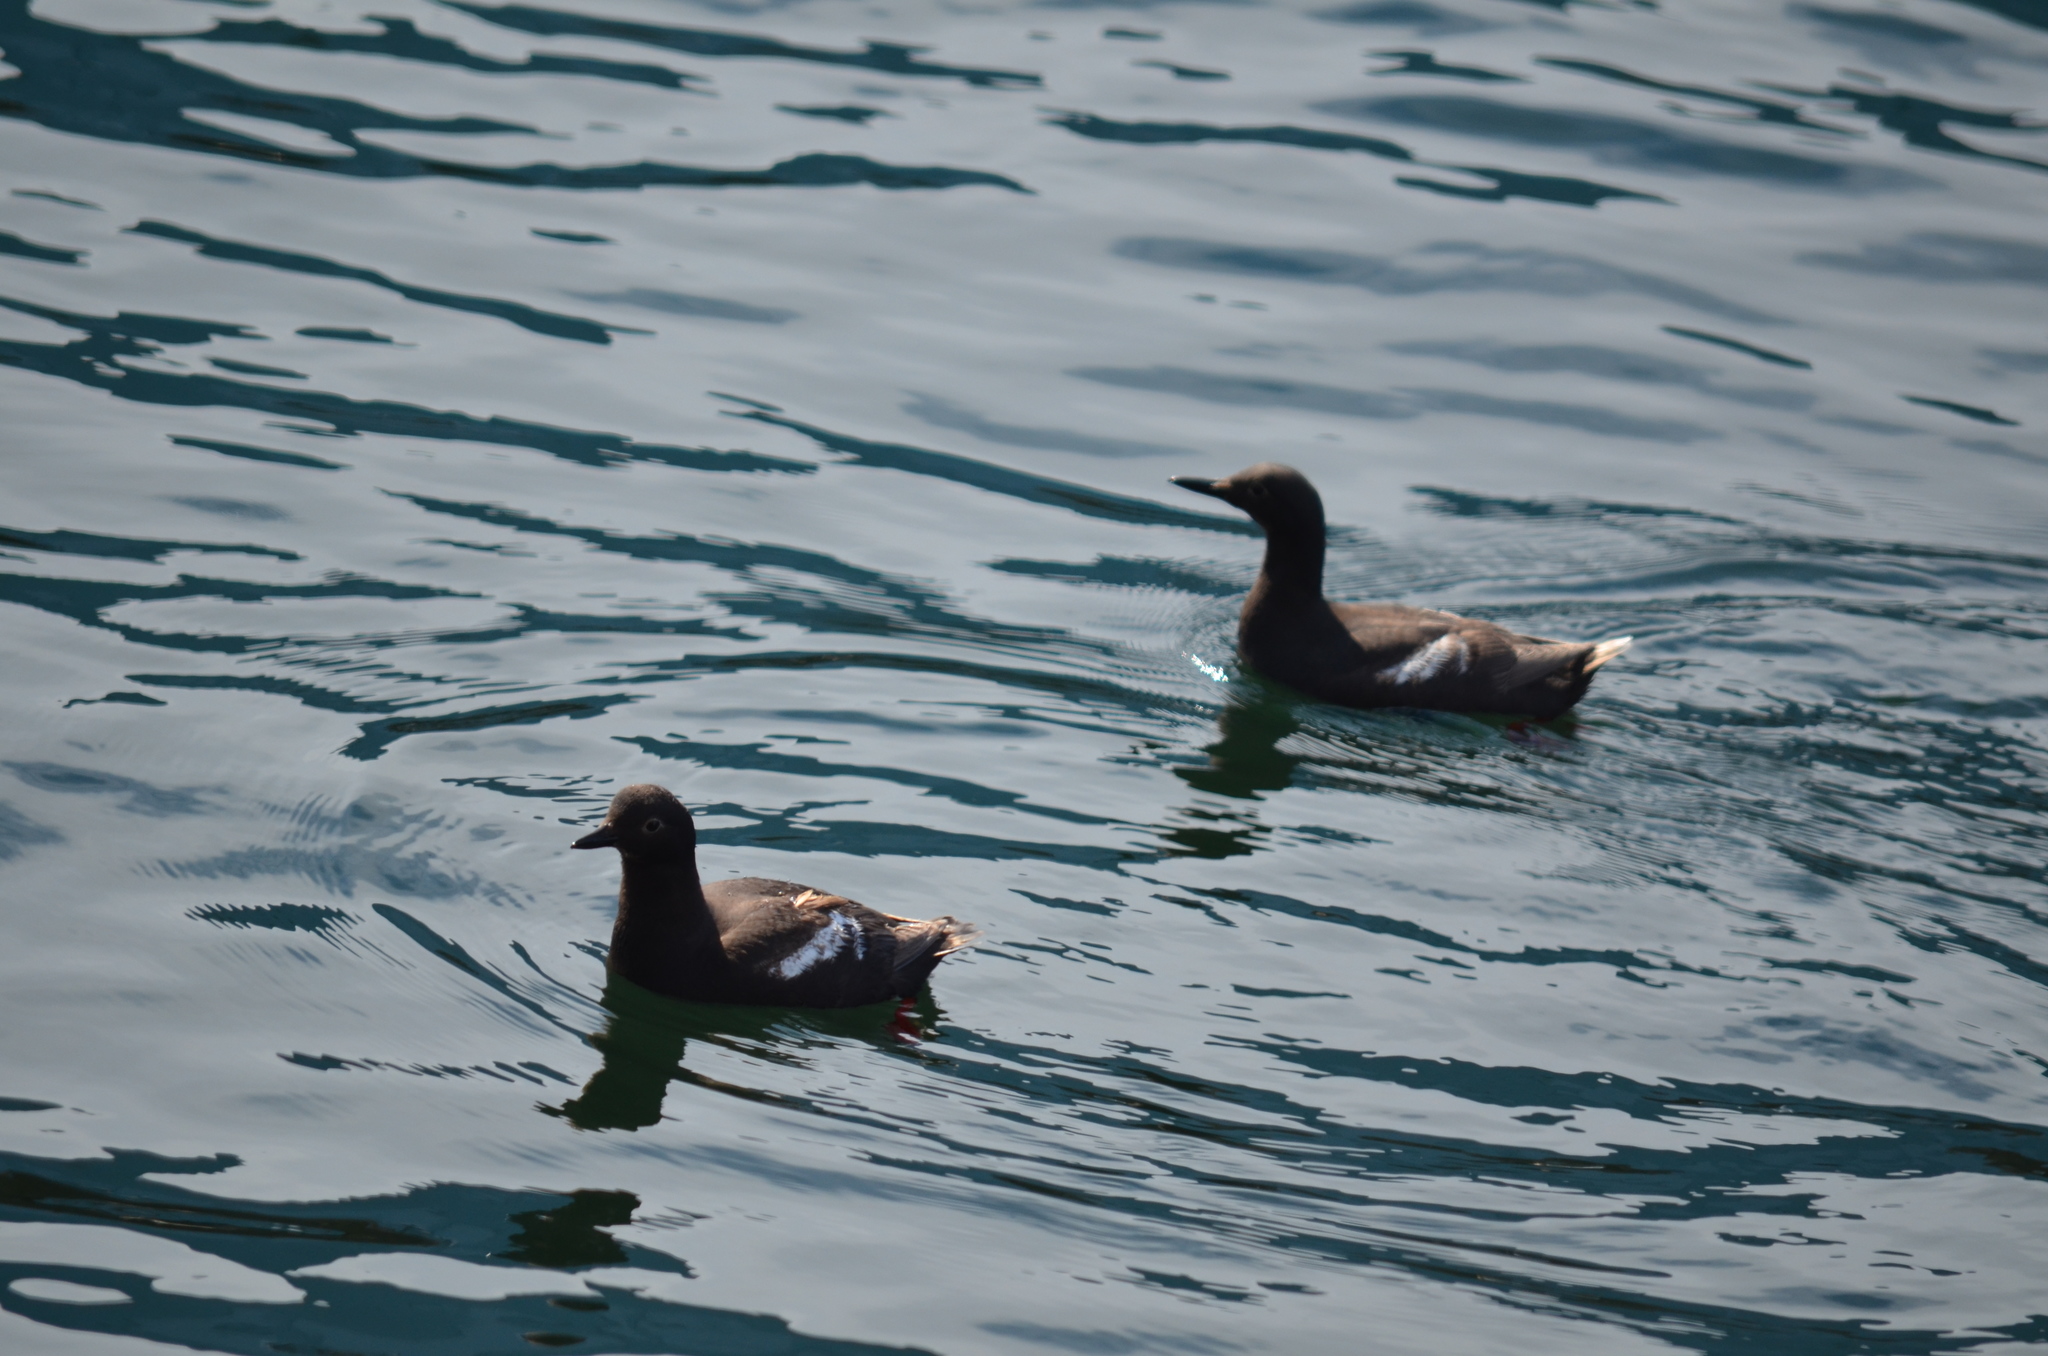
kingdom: Animalia
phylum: Chordata
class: Aves
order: Charadriiformes
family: Alcidae
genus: Cepphus
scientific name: Cepphus columba
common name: Pigeon guillemot
